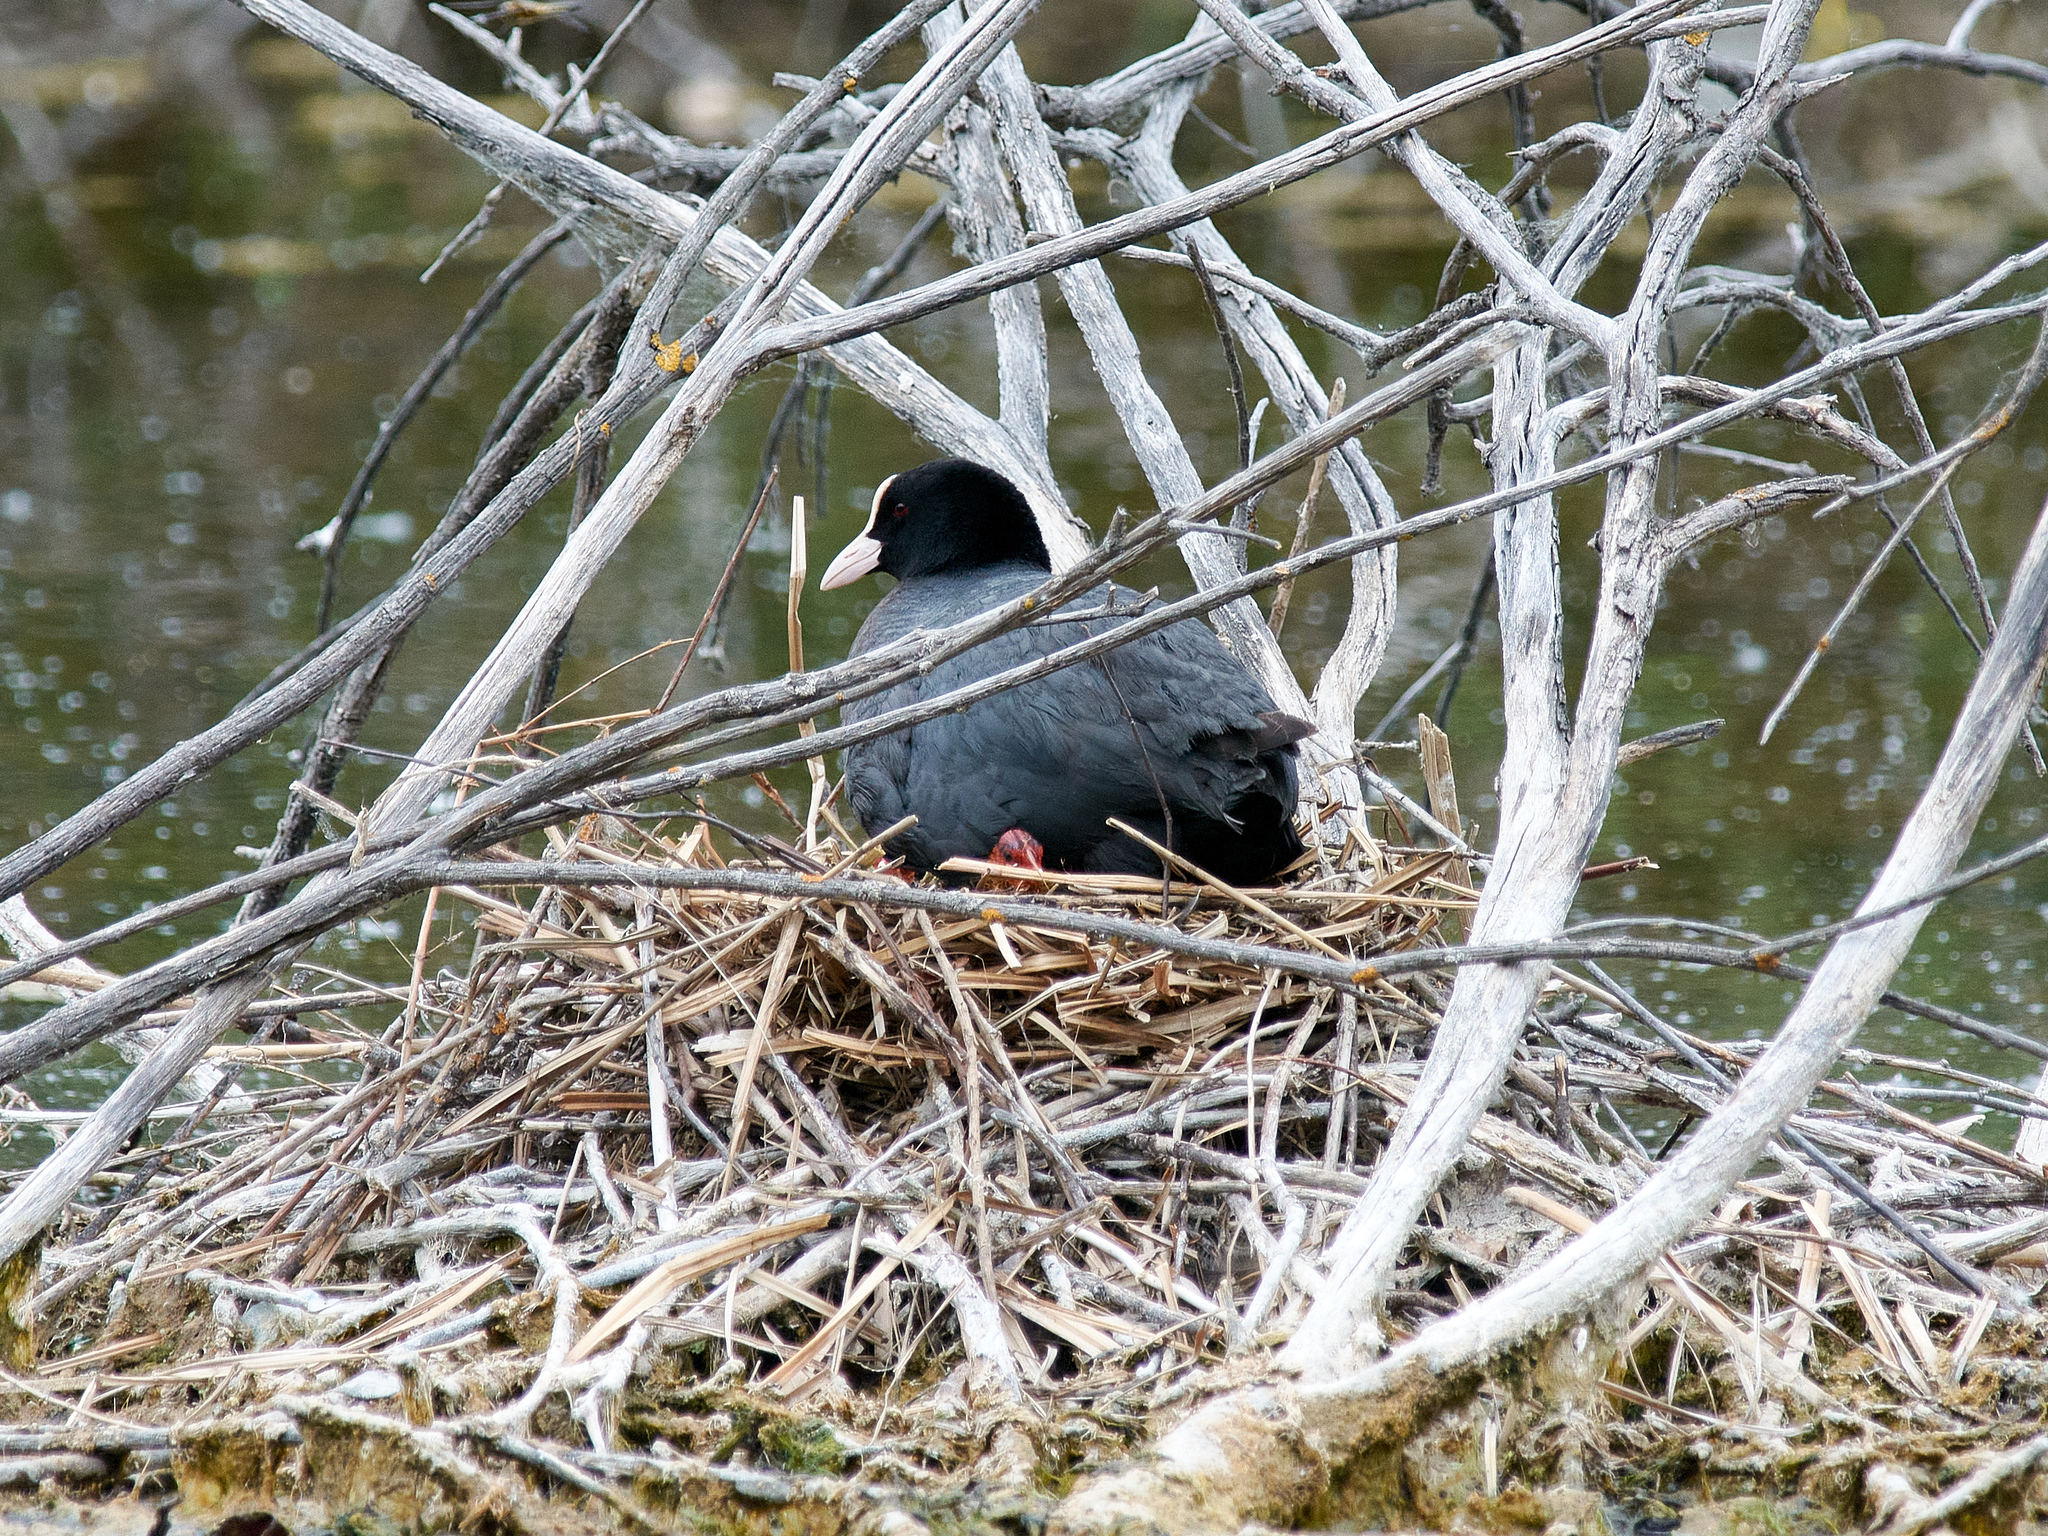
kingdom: Animalia
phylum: Chordata
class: Aves
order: Gruiformes
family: Rallidae
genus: Fulica
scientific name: Fulica atra
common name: Eurasian coot
